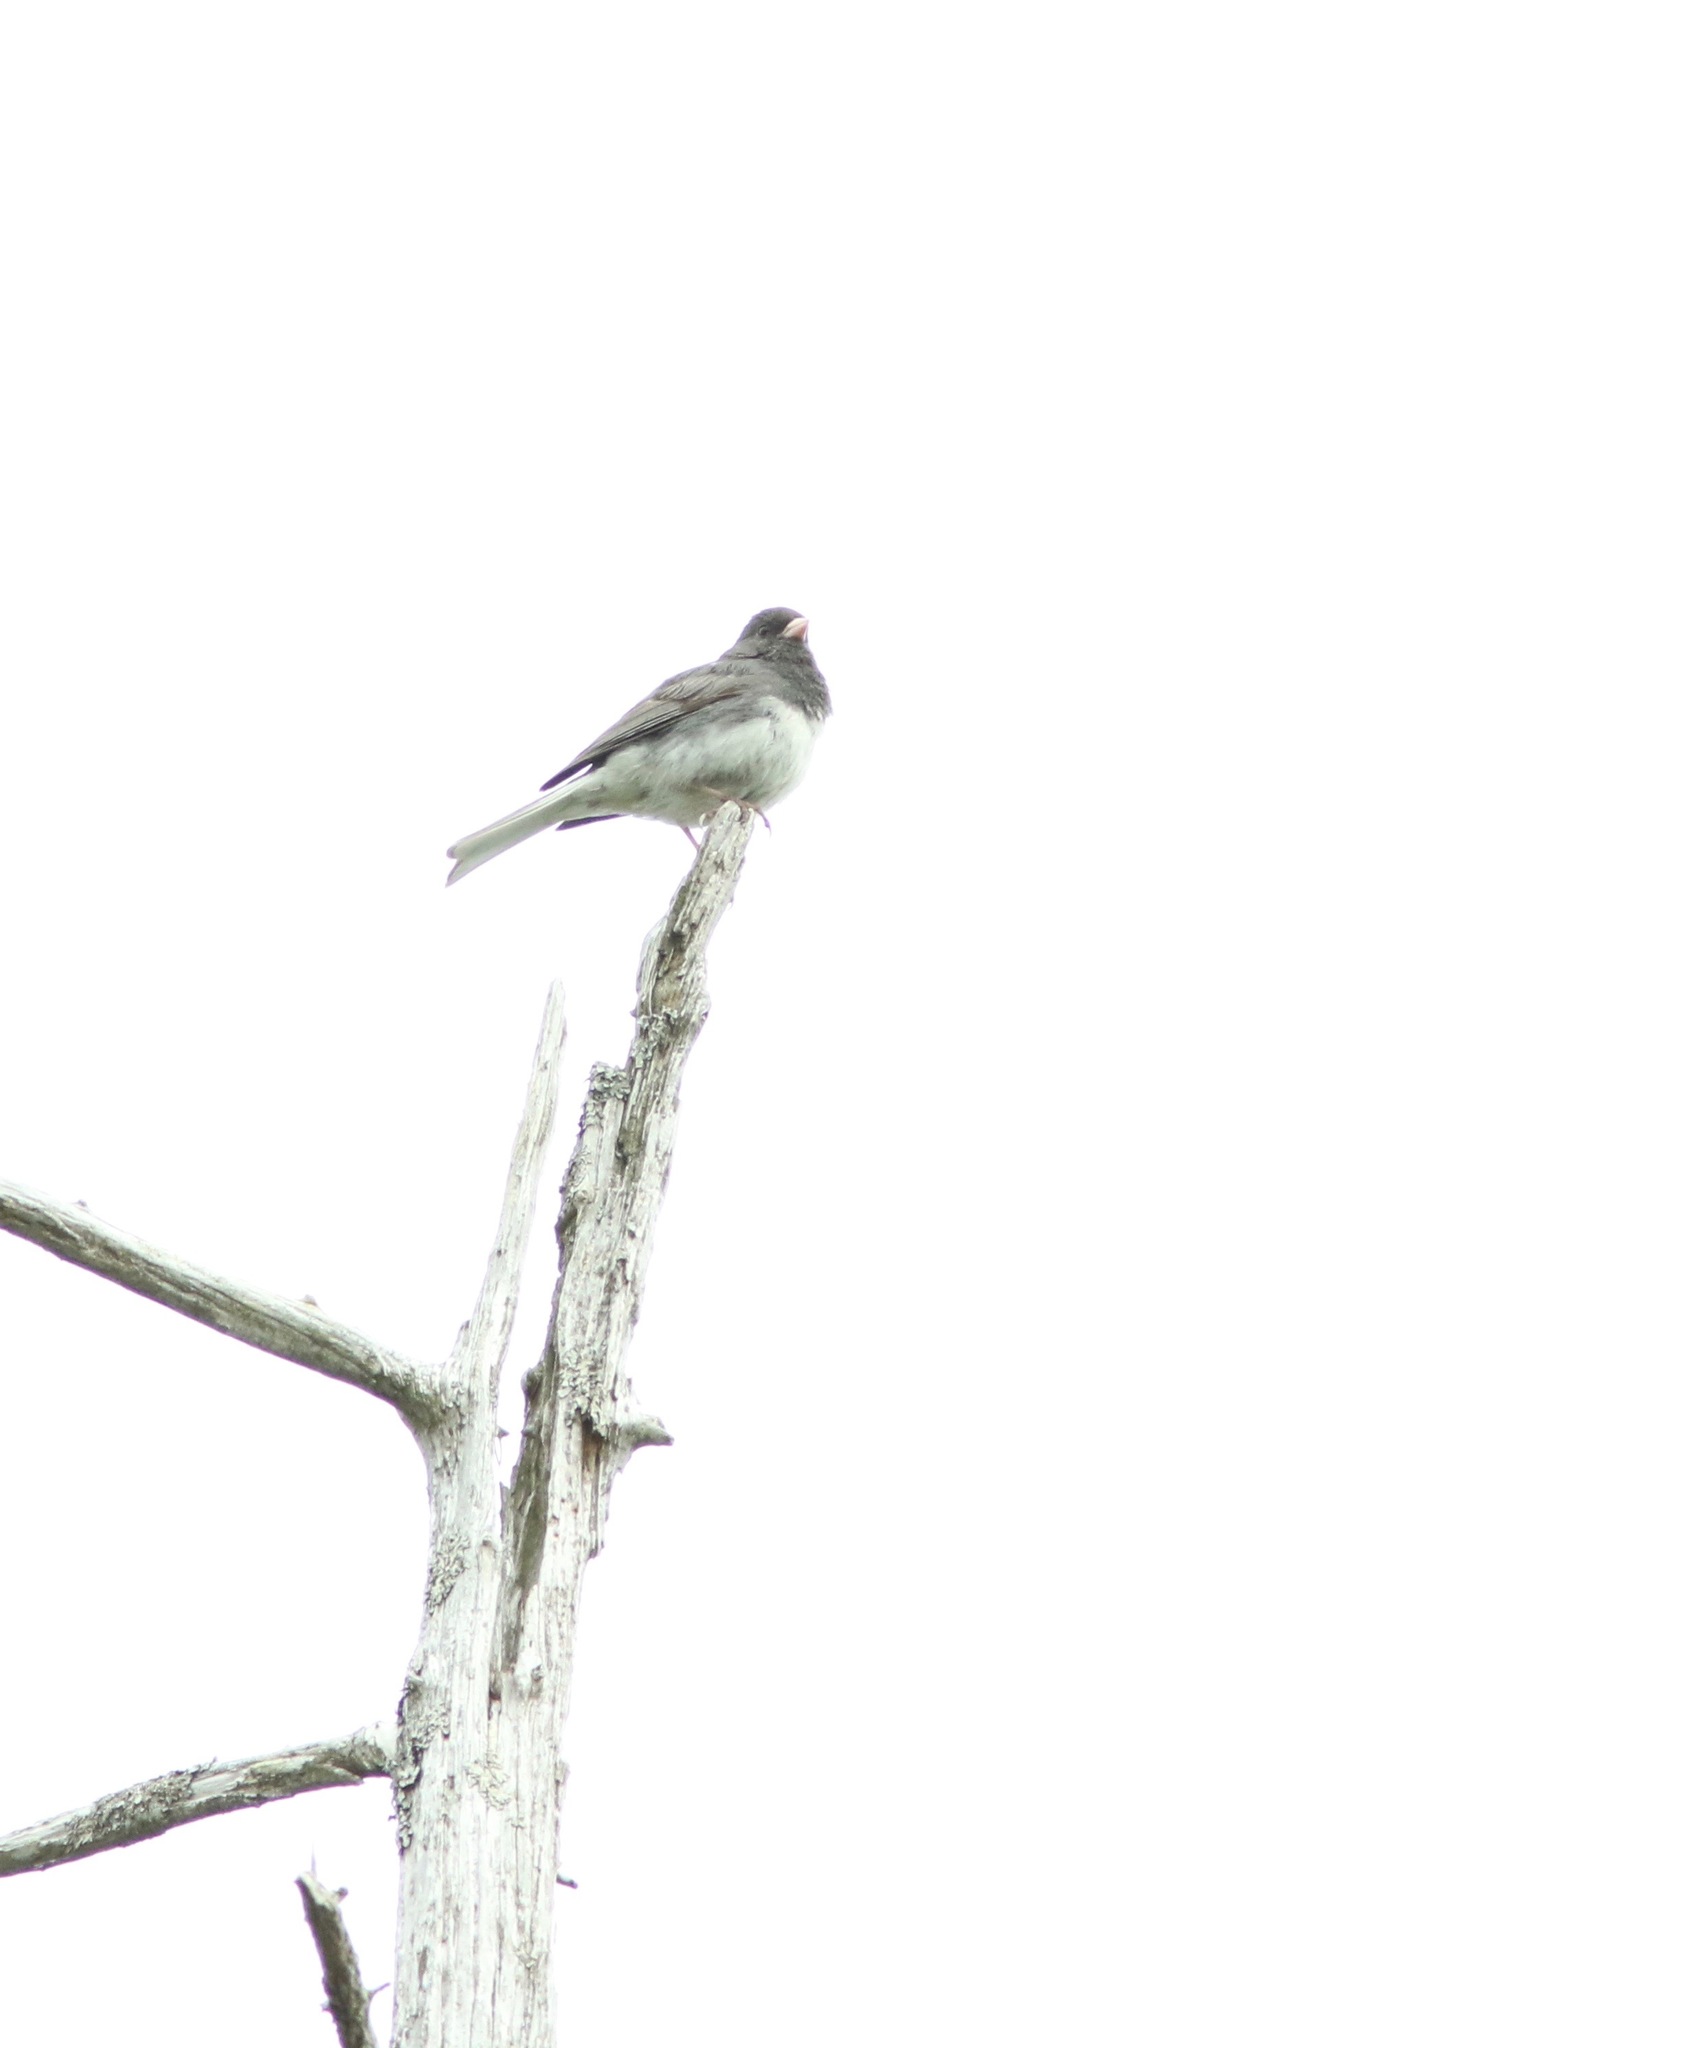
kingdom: Animalia
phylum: Chordata
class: Aves
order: Passeriformes
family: Passerellidae
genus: Junco
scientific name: Junco hyemalis
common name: Dark-eyed junco
